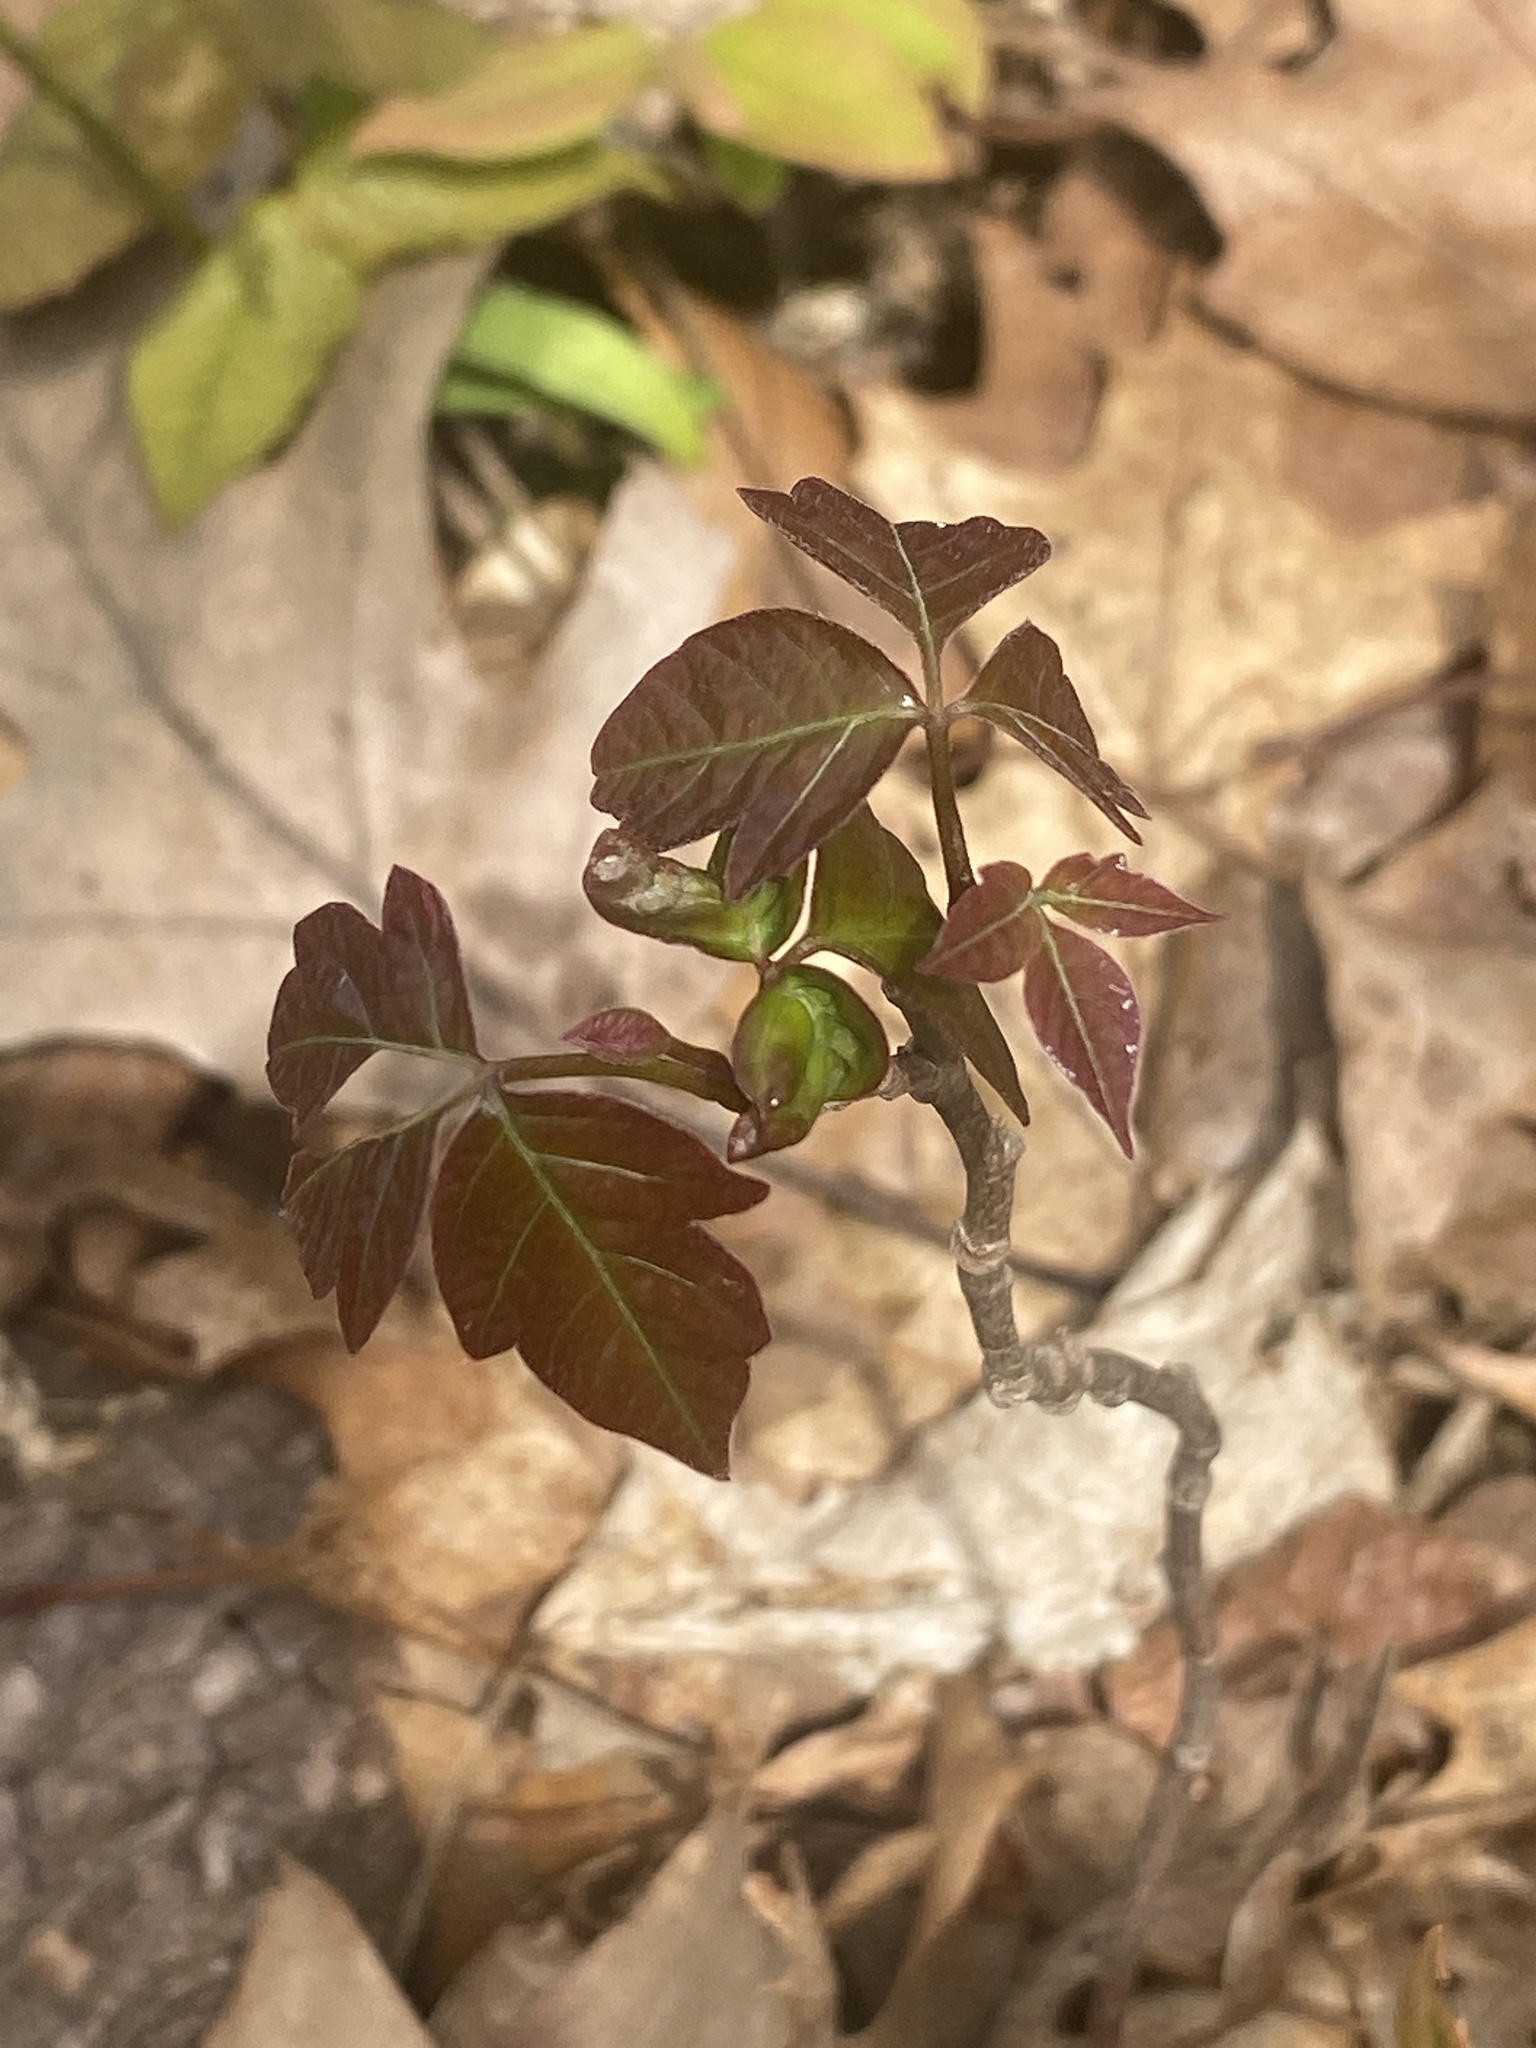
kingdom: Plantae
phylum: Tracheophyta
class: Magnoliopsida
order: Sapindales
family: Anacardiaceae
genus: Toxicodendron
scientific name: Toxicodendron radicans
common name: Poison ivy
